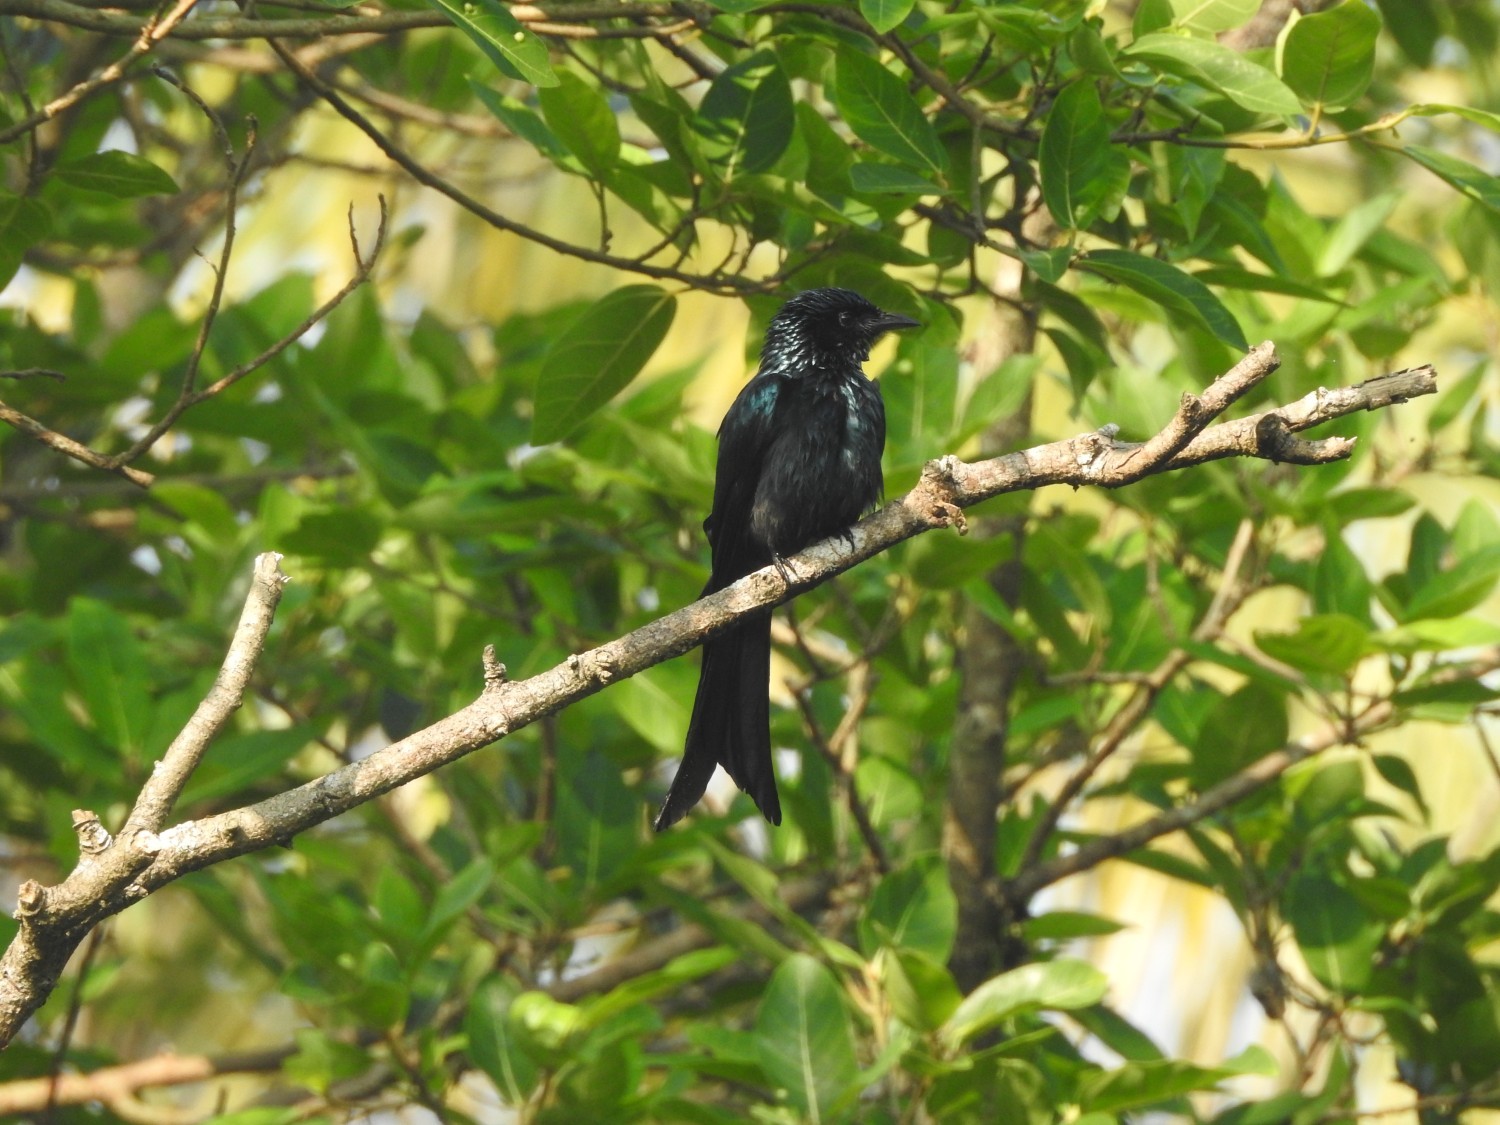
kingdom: Animalia
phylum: Chordata
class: Aves
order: Passeriformes
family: Dicruridae
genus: Dicrurus
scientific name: Dicrurus aeneus
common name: Bronzed drongo
